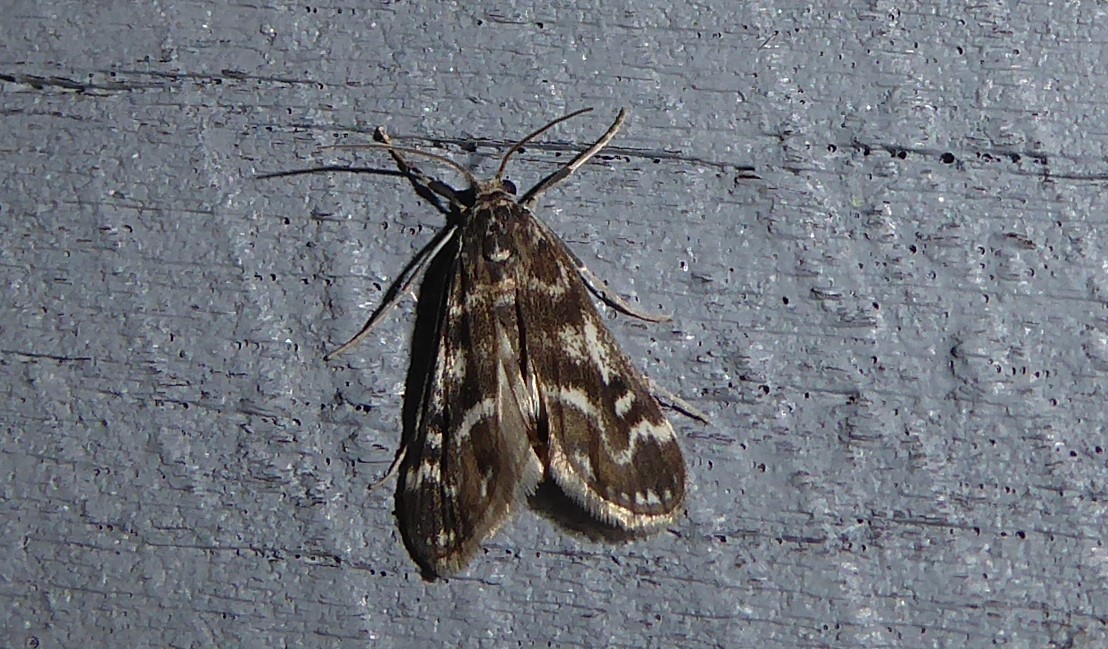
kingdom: Animalia
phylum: Arthropoda
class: Insecta
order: Lepidoptera
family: Crambidae
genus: Hygraula
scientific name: Hygraula nitens
